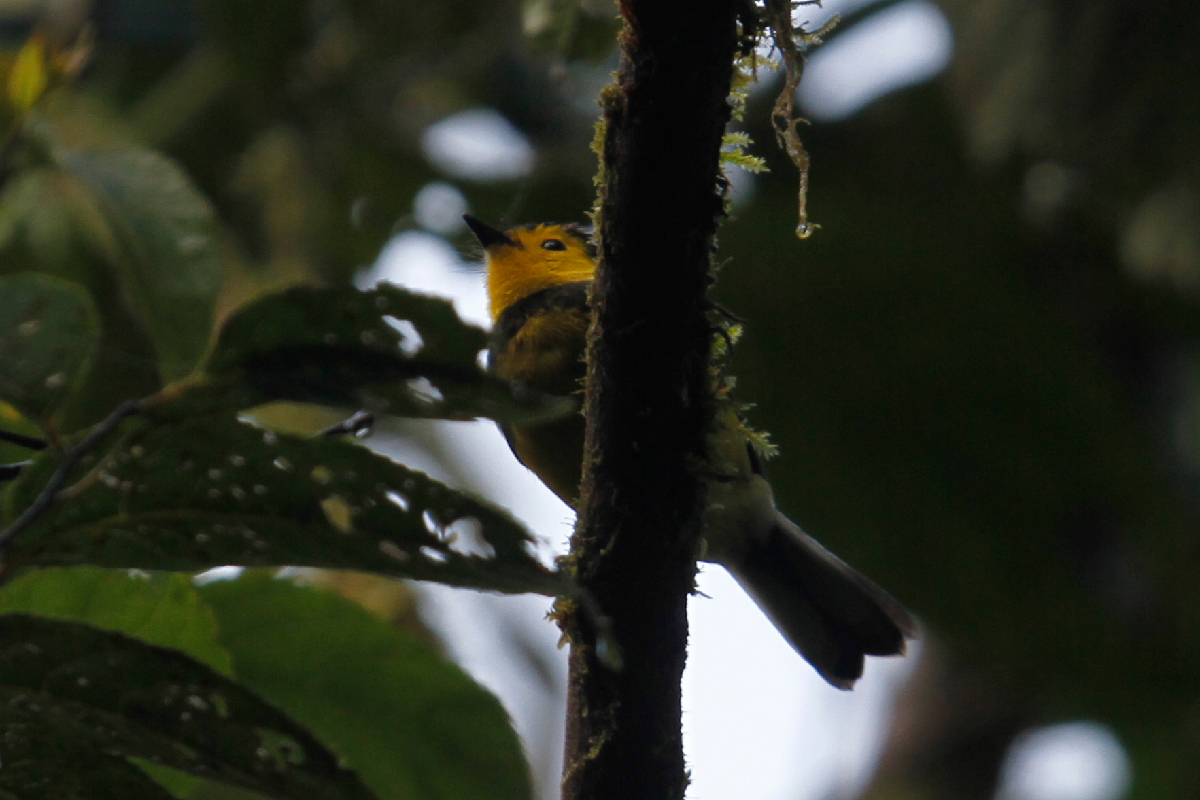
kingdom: Animalia
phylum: Chordata
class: Aves
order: Passeriformes
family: Parulidae
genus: Myioborus
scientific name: Myioborus torquatus
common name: Collared whitestart
